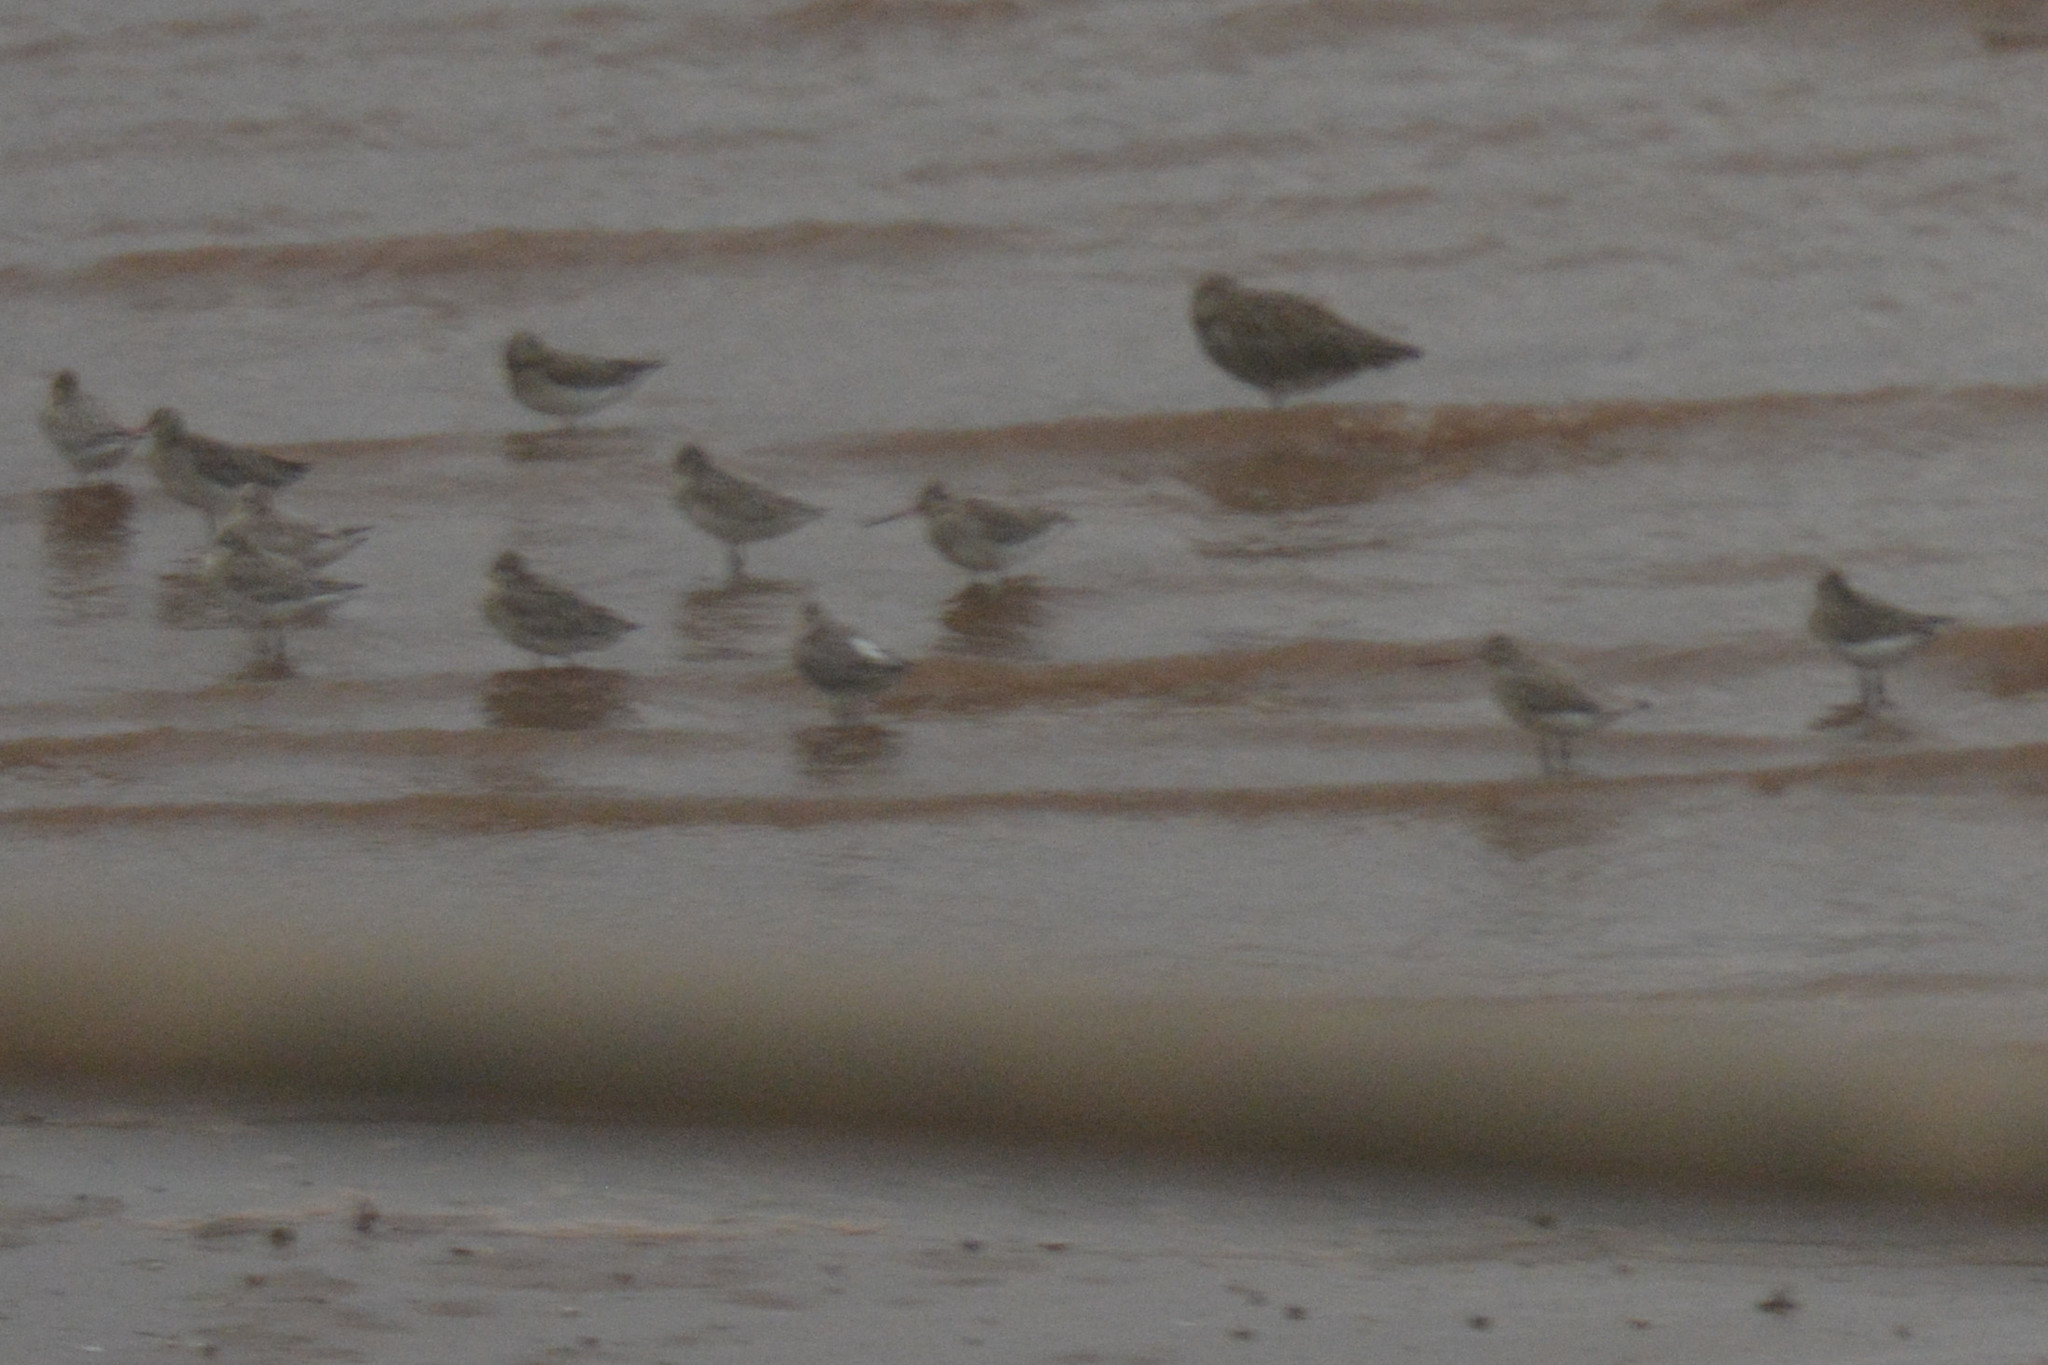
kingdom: Animalia
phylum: Chordata
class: Aves
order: Charadriiformes
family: Scolopacidae
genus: Limosa
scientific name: Limosa lapponica
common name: Bar-tailed godwit
